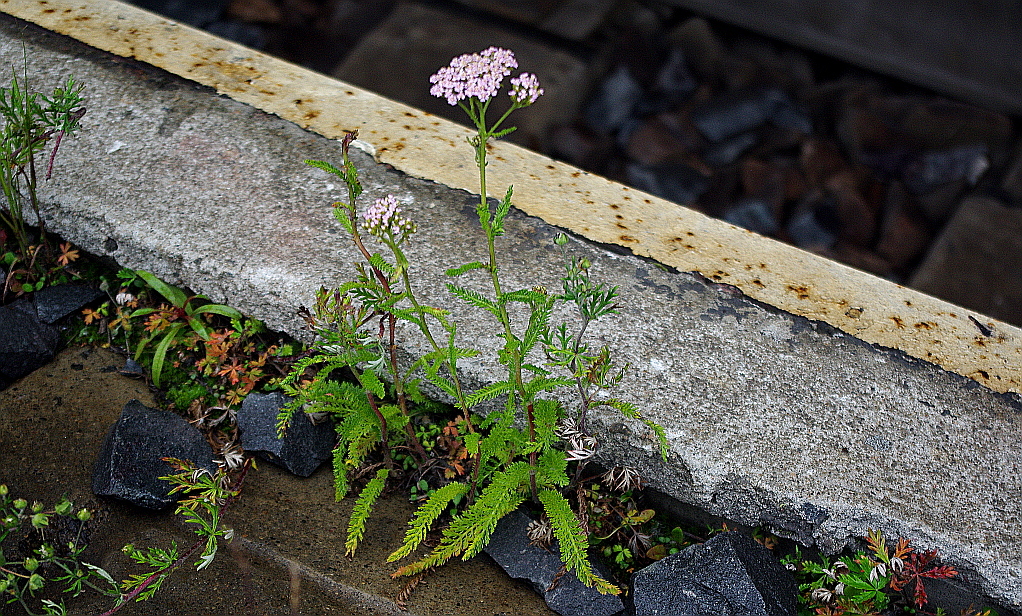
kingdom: Plantae
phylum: Tracheophyta
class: Magnoliopsida
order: Asterales
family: Asteraceae
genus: Achillea
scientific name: Achillea millefolium
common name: Yarrow
